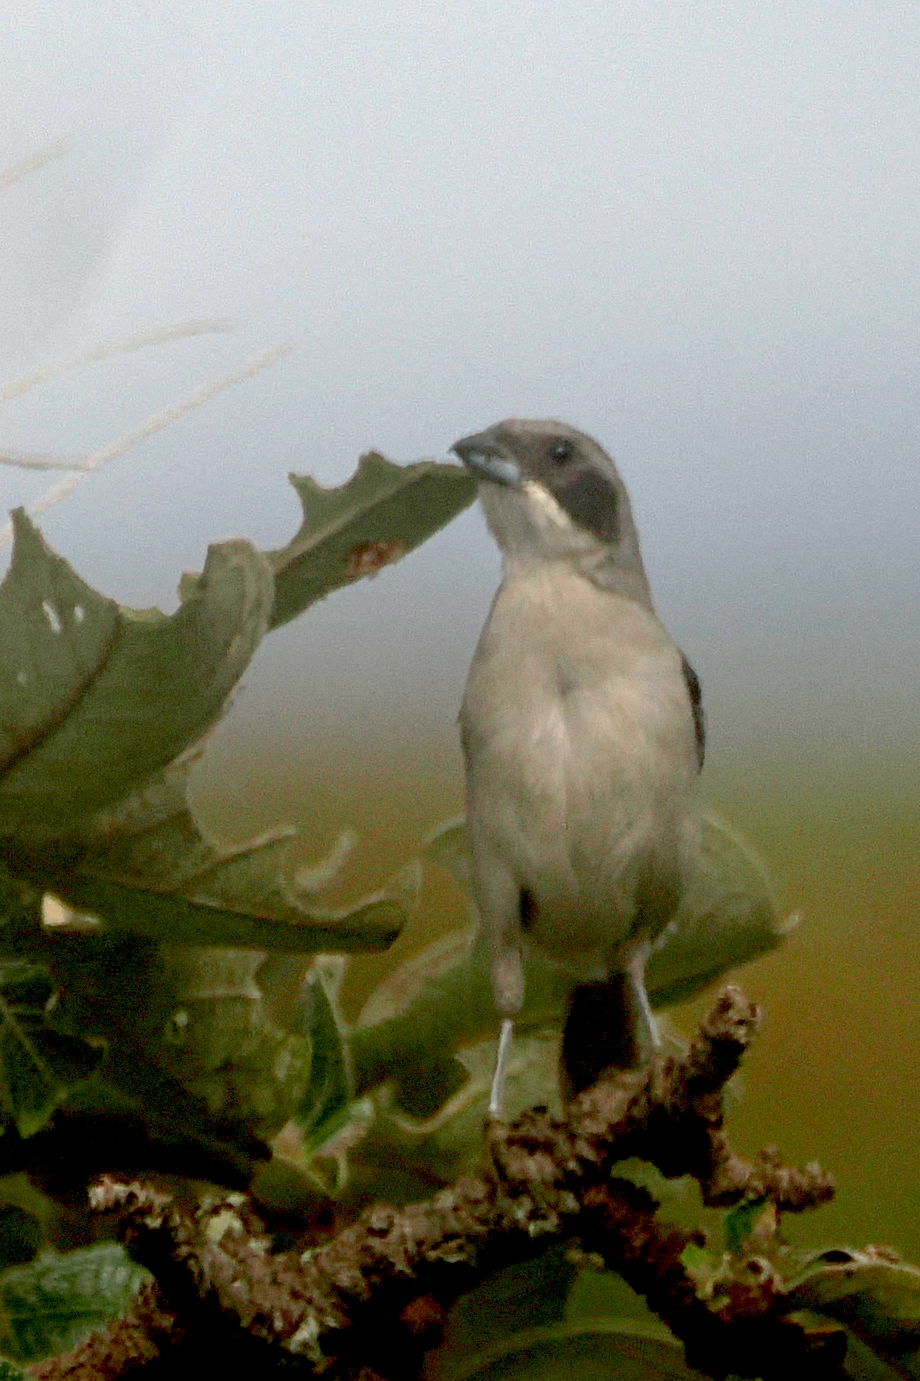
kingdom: Animalia
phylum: Chordata
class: Aves
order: Passeriformes
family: Thraupidae
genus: Neothraupis
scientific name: Neothraupis fasciata
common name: Shrike-like tanager
